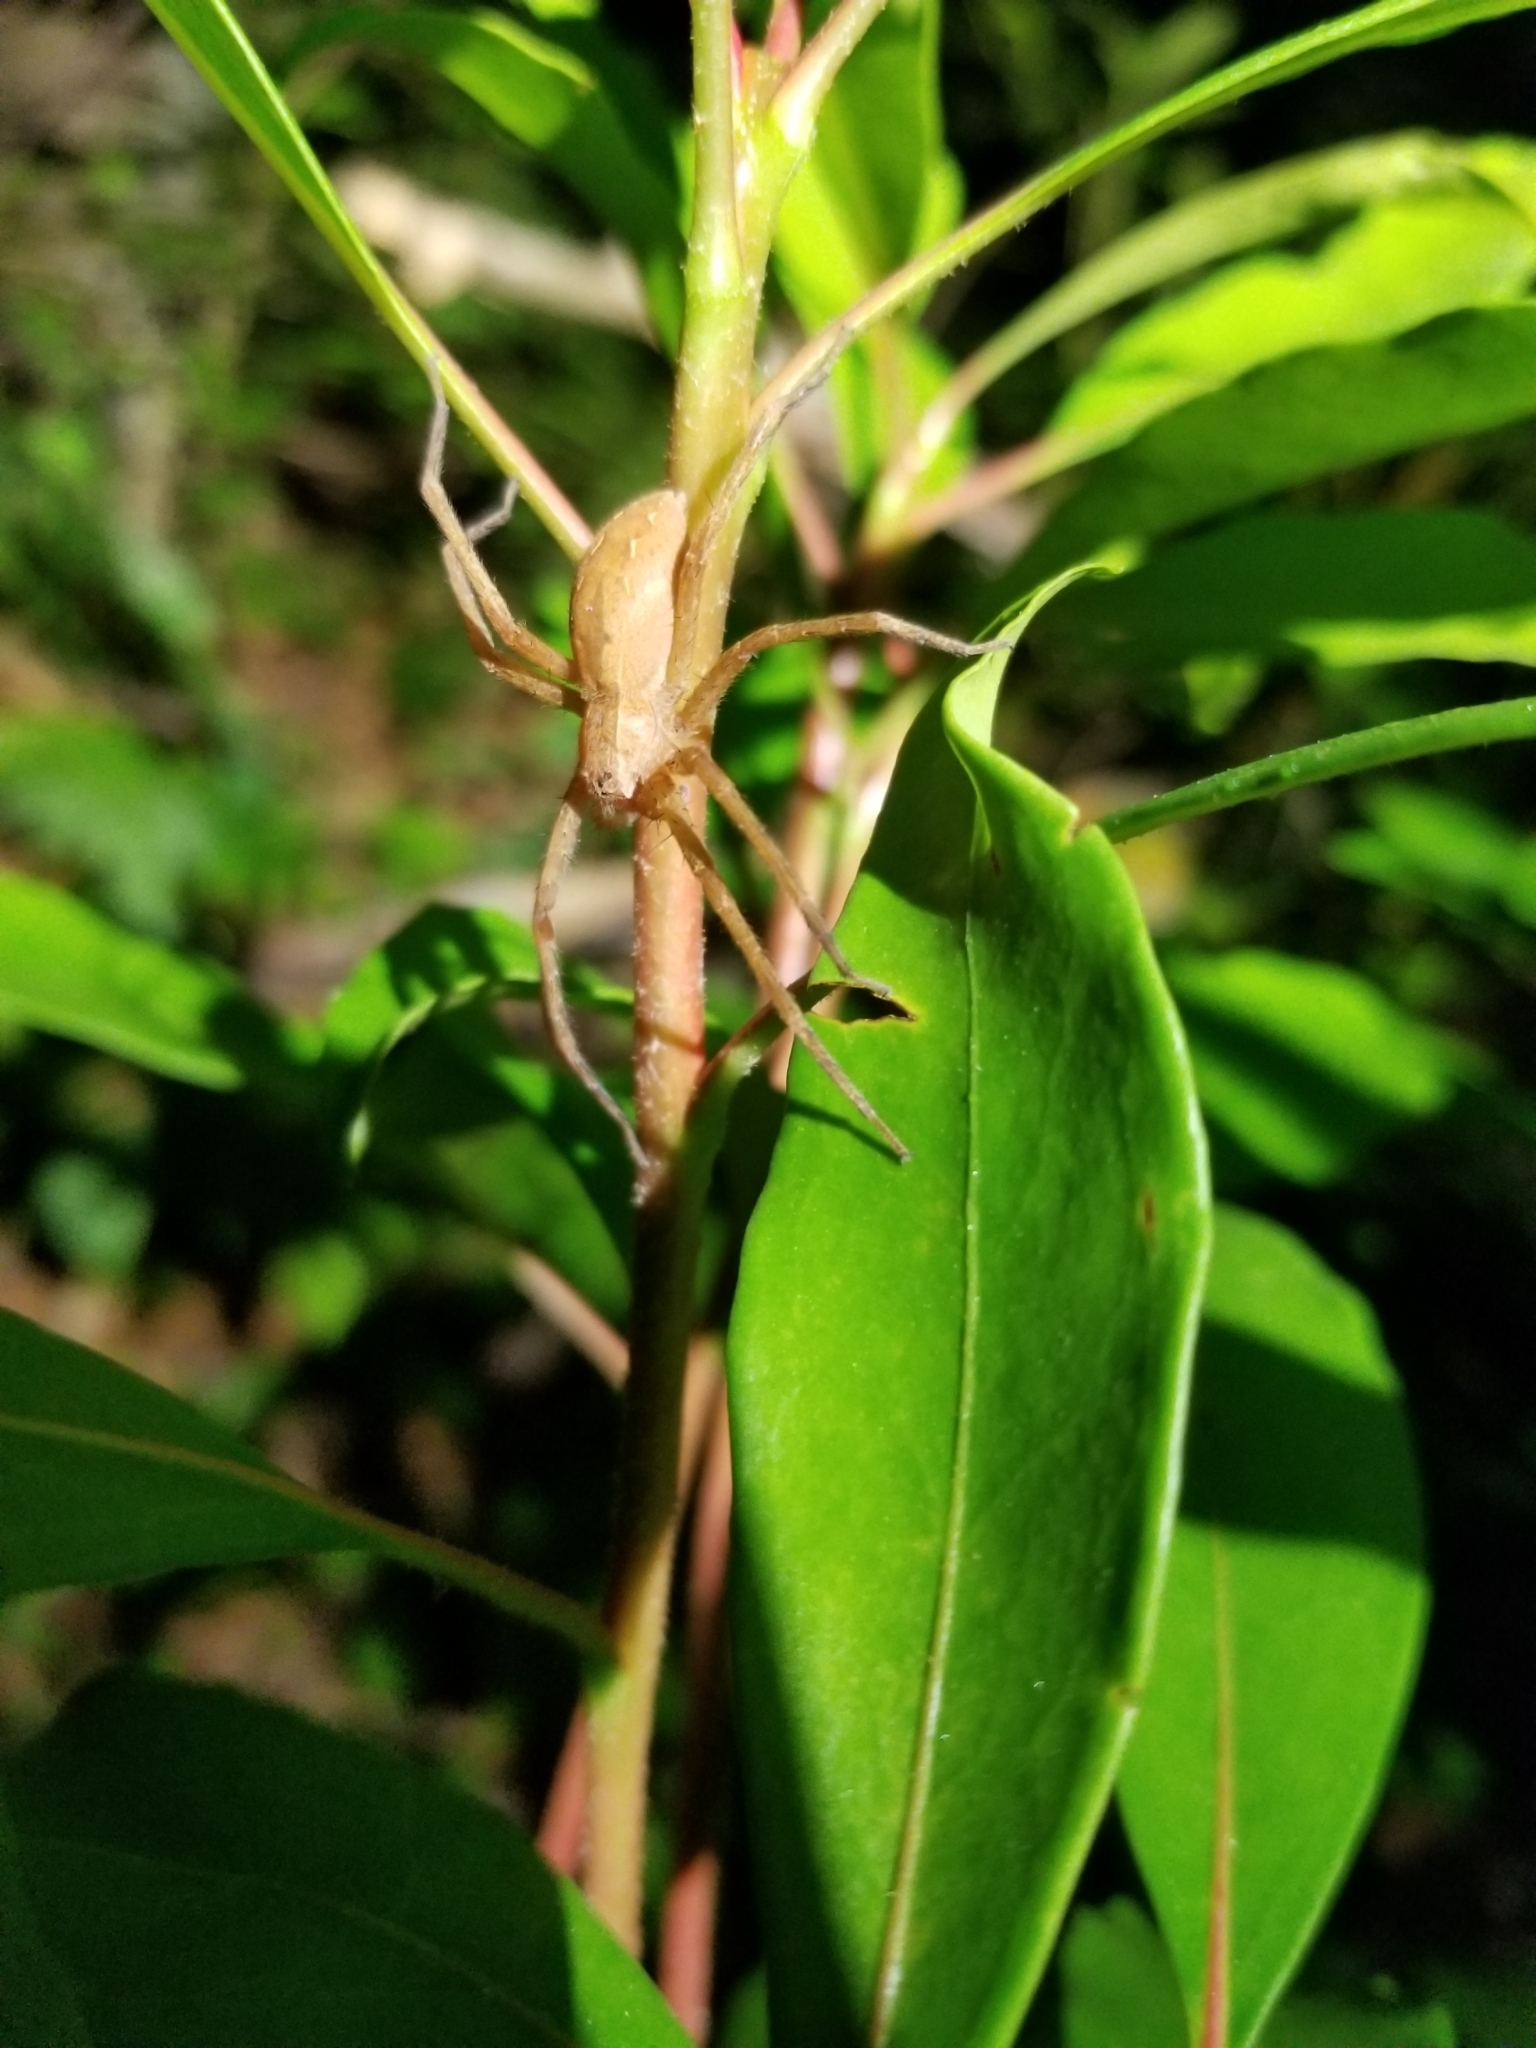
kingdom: Animalia
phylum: Arthropoda
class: Arachnida
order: Araneae
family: Pisauridae
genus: Pisaurina
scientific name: Pisaurina mira
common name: American nursery web spider
